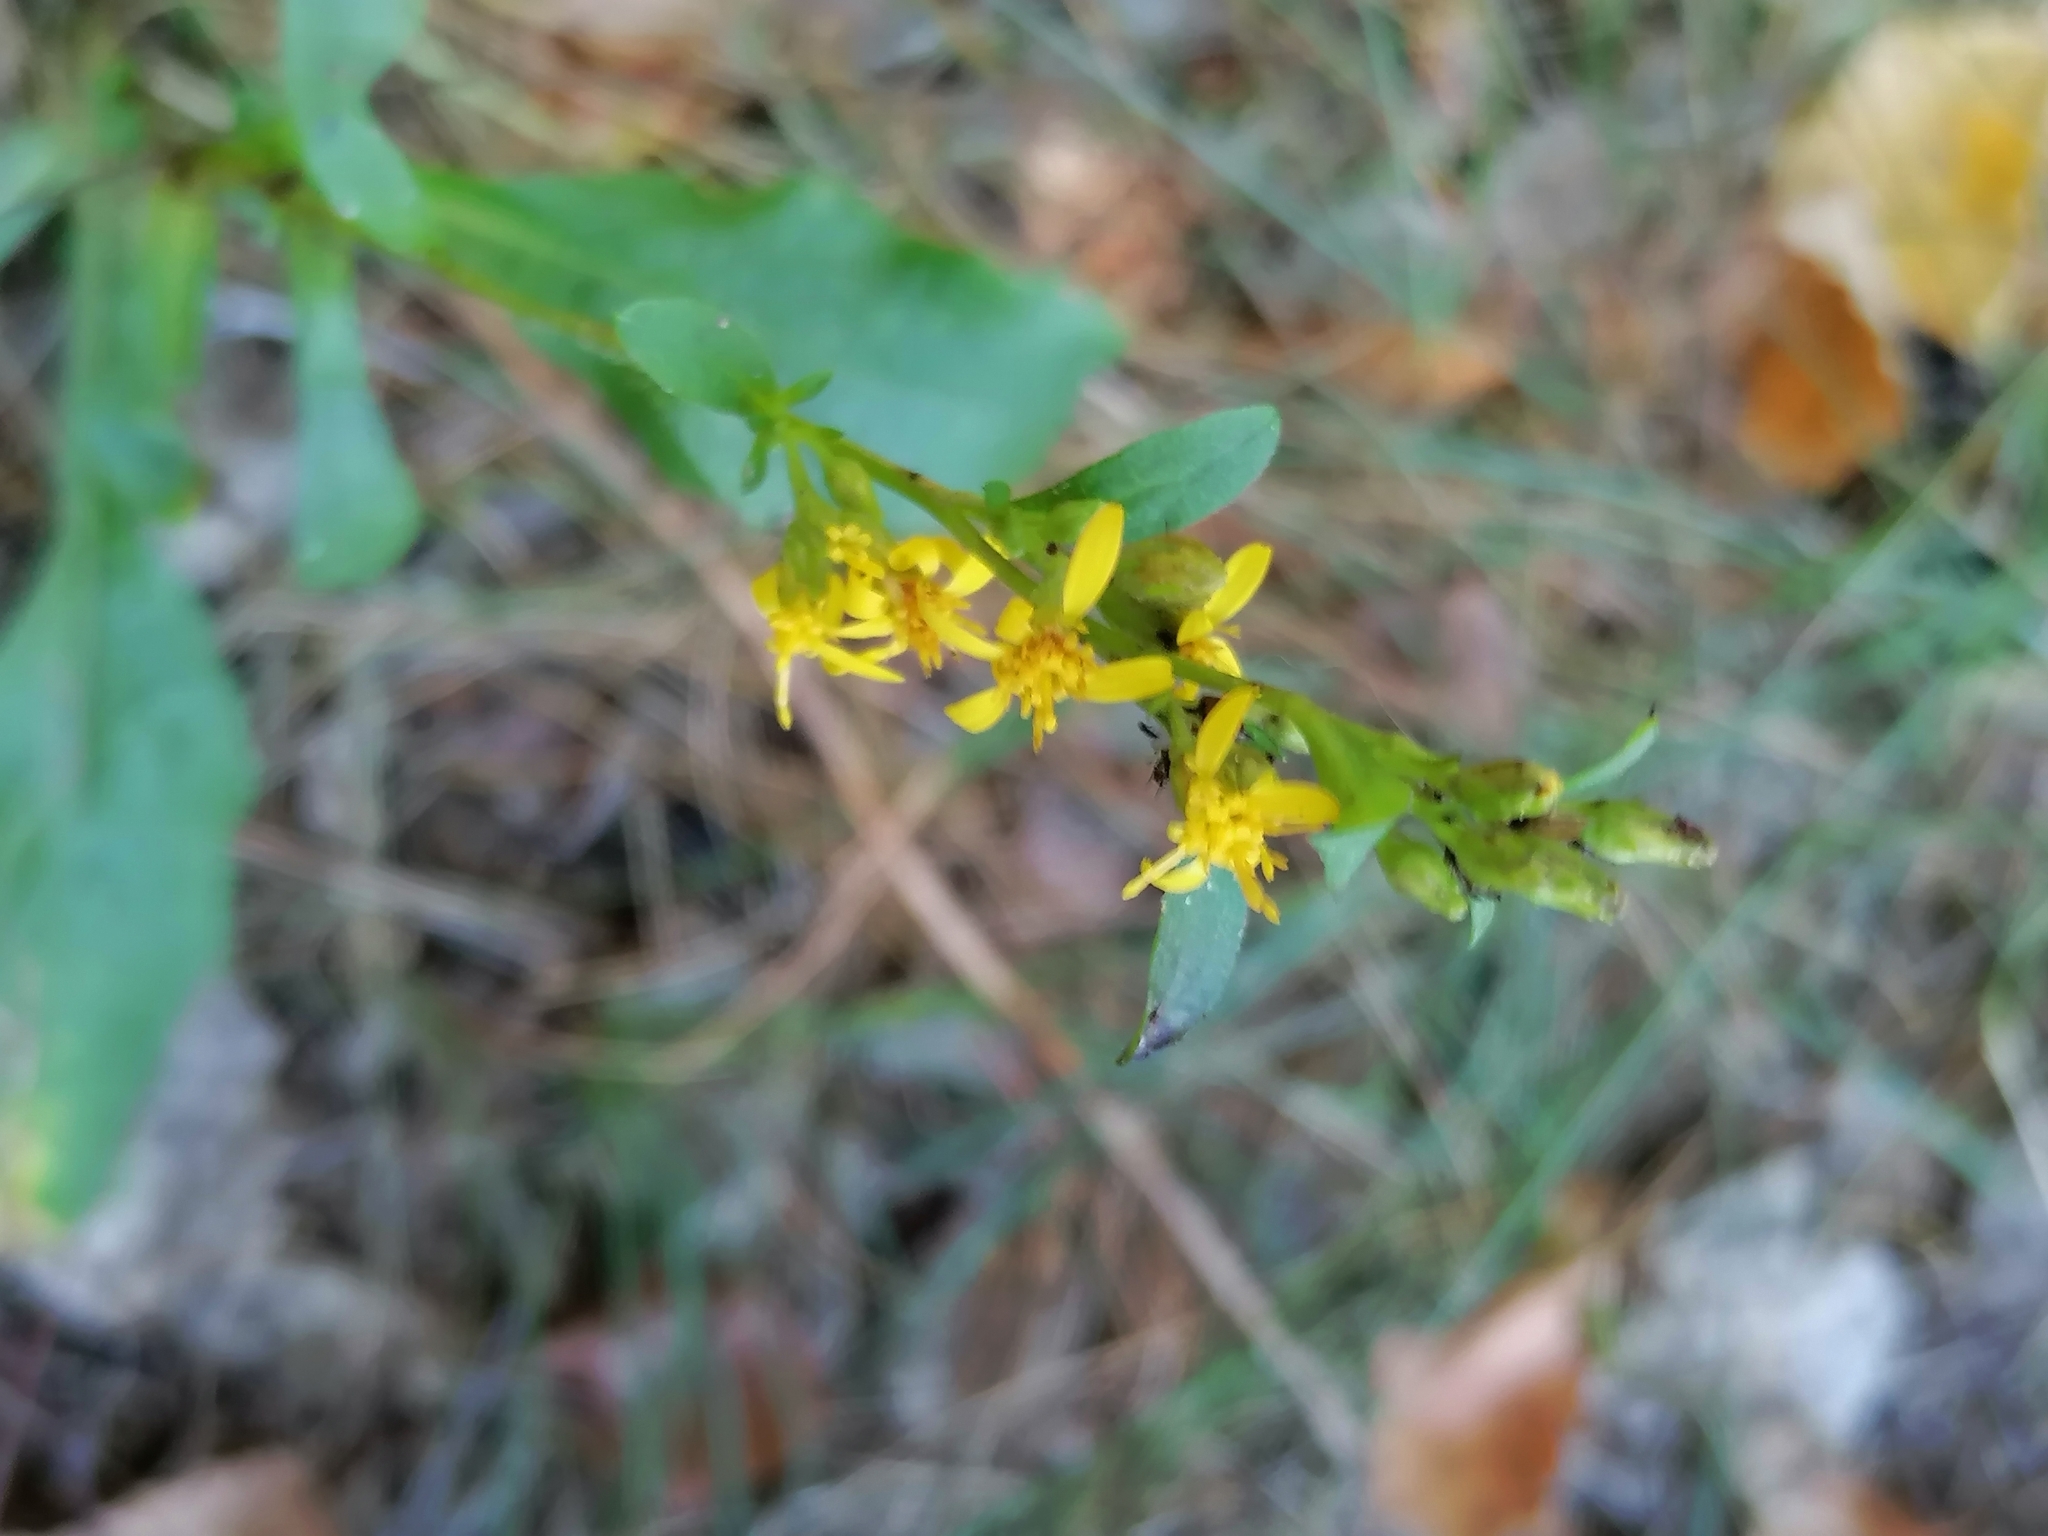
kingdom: Plantae
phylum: Tracheophyta
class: Magnoliopsida
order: Asterales
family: Asteraceae
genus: Solidago
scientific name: Solidago virgaurea
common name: Goldenrod
